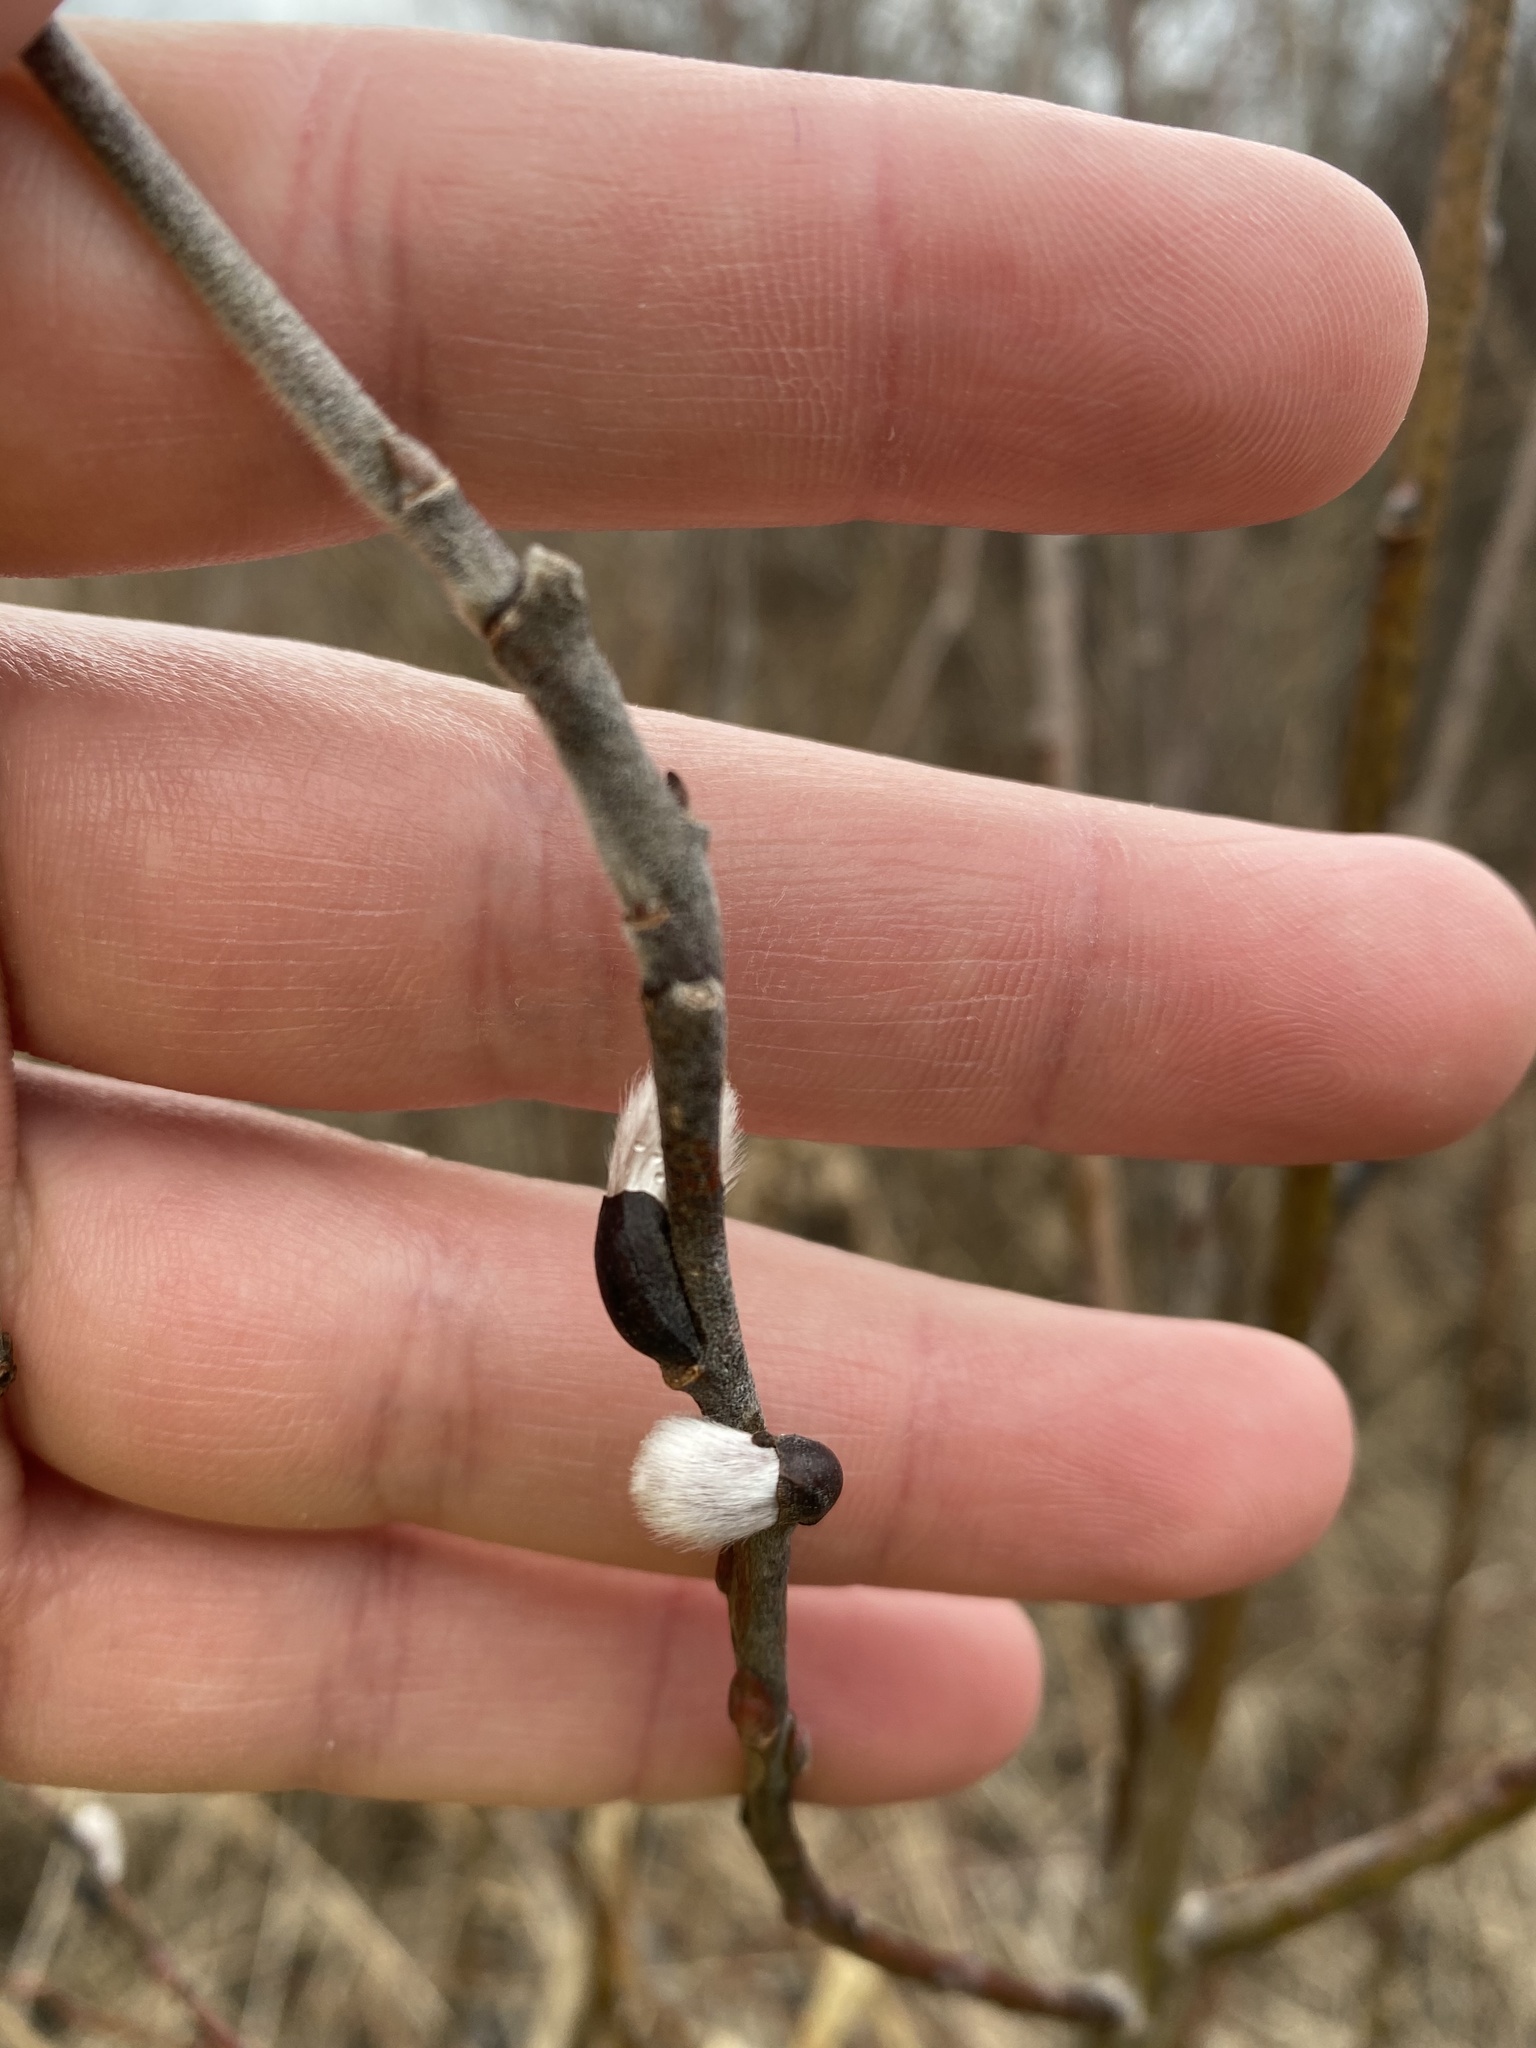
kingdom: Plantae
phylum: Tracheophyta
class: Magnoliopsida
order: Malpighiales
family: Salicaceae
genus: Salix
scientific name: Salix discolor
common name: Glaucous willow
